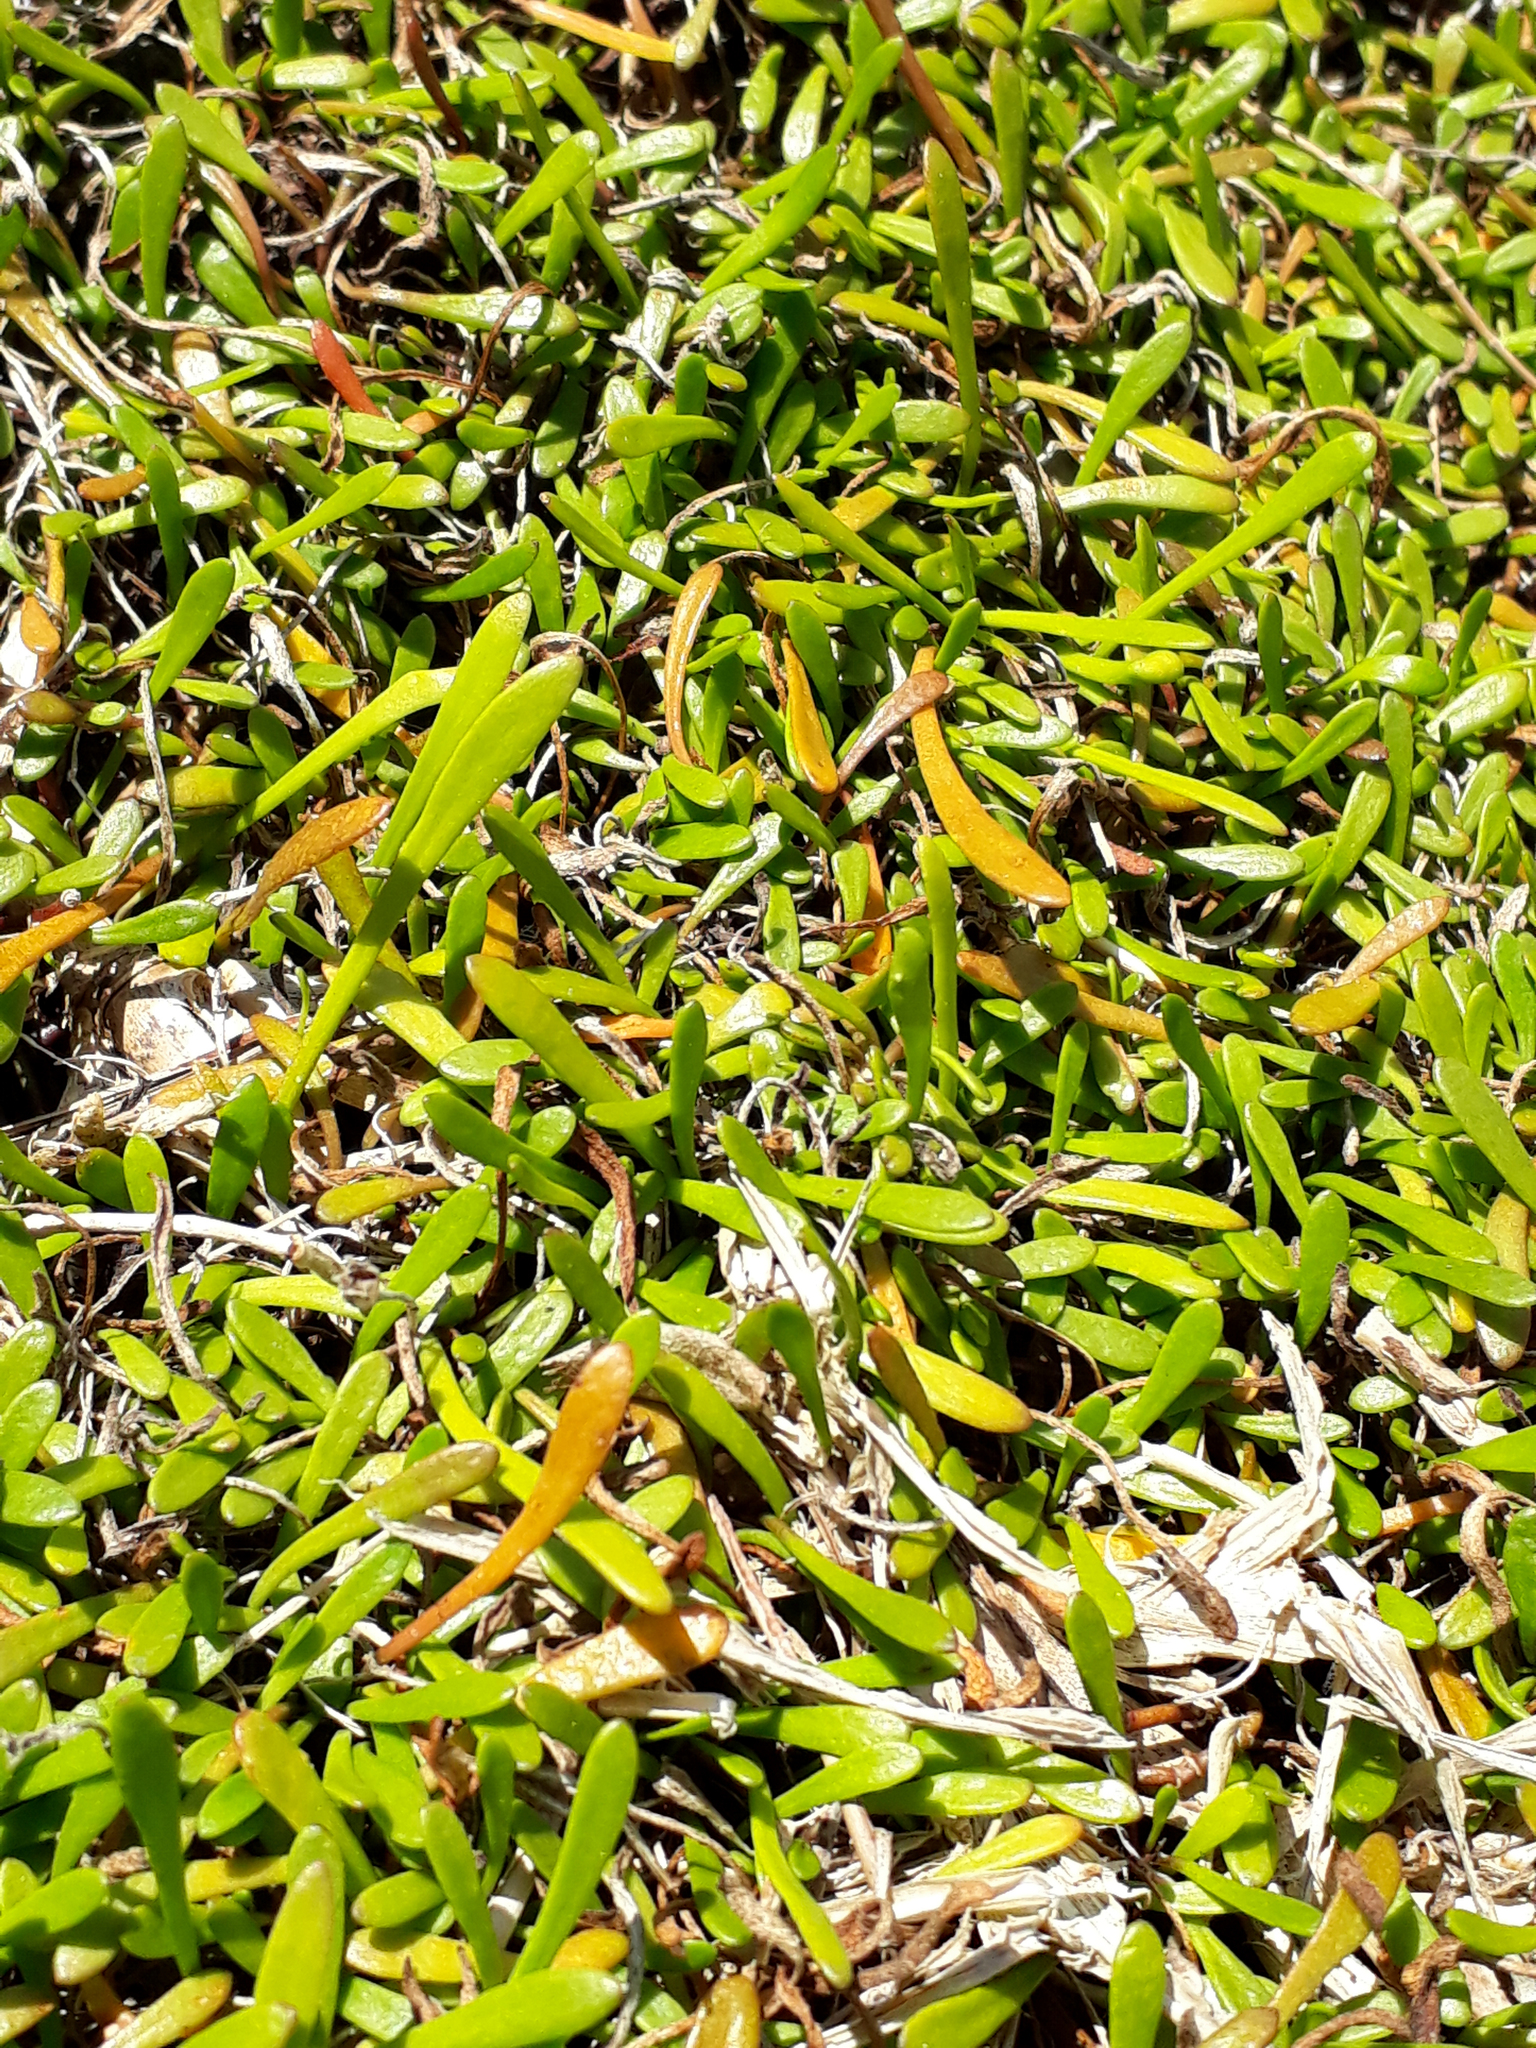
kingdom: Plantae
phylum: Tracheophyta
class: Magnoliopsida
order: Asterales
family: Goodeniaceae
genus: Goodenia
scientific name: Goodenia radicans
